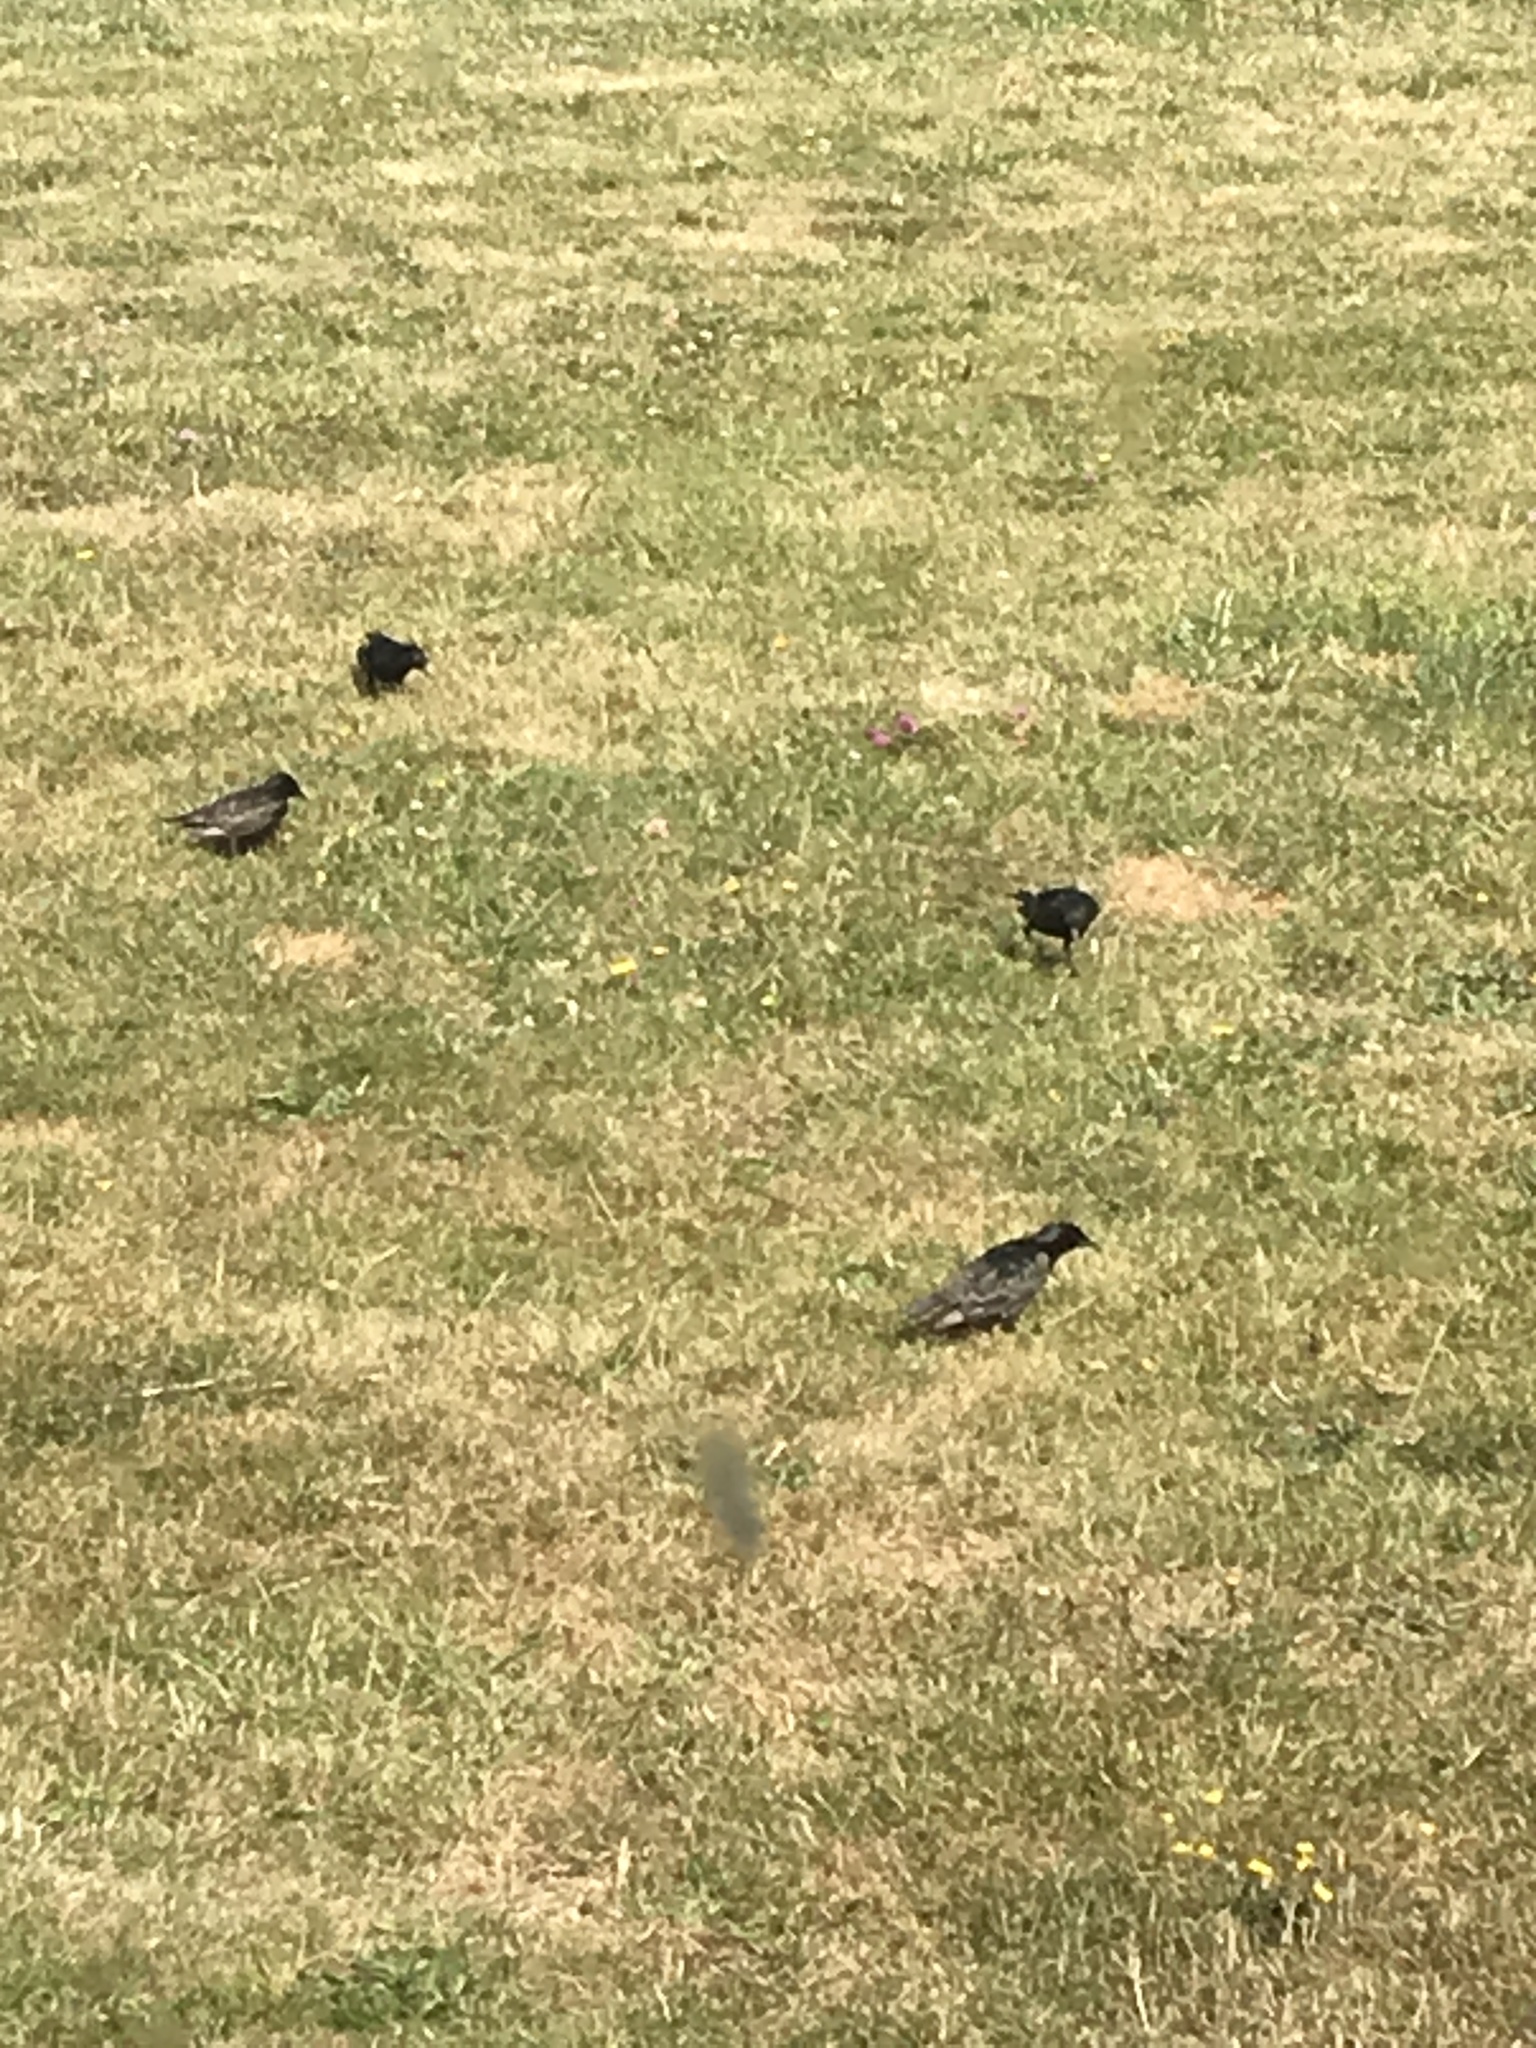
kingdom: Animalia
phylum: Chordata
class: Aves
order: Passeriformes
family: Sturnidae
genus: Sturnus
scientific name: Sturnus vulgaris
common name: Common starling
